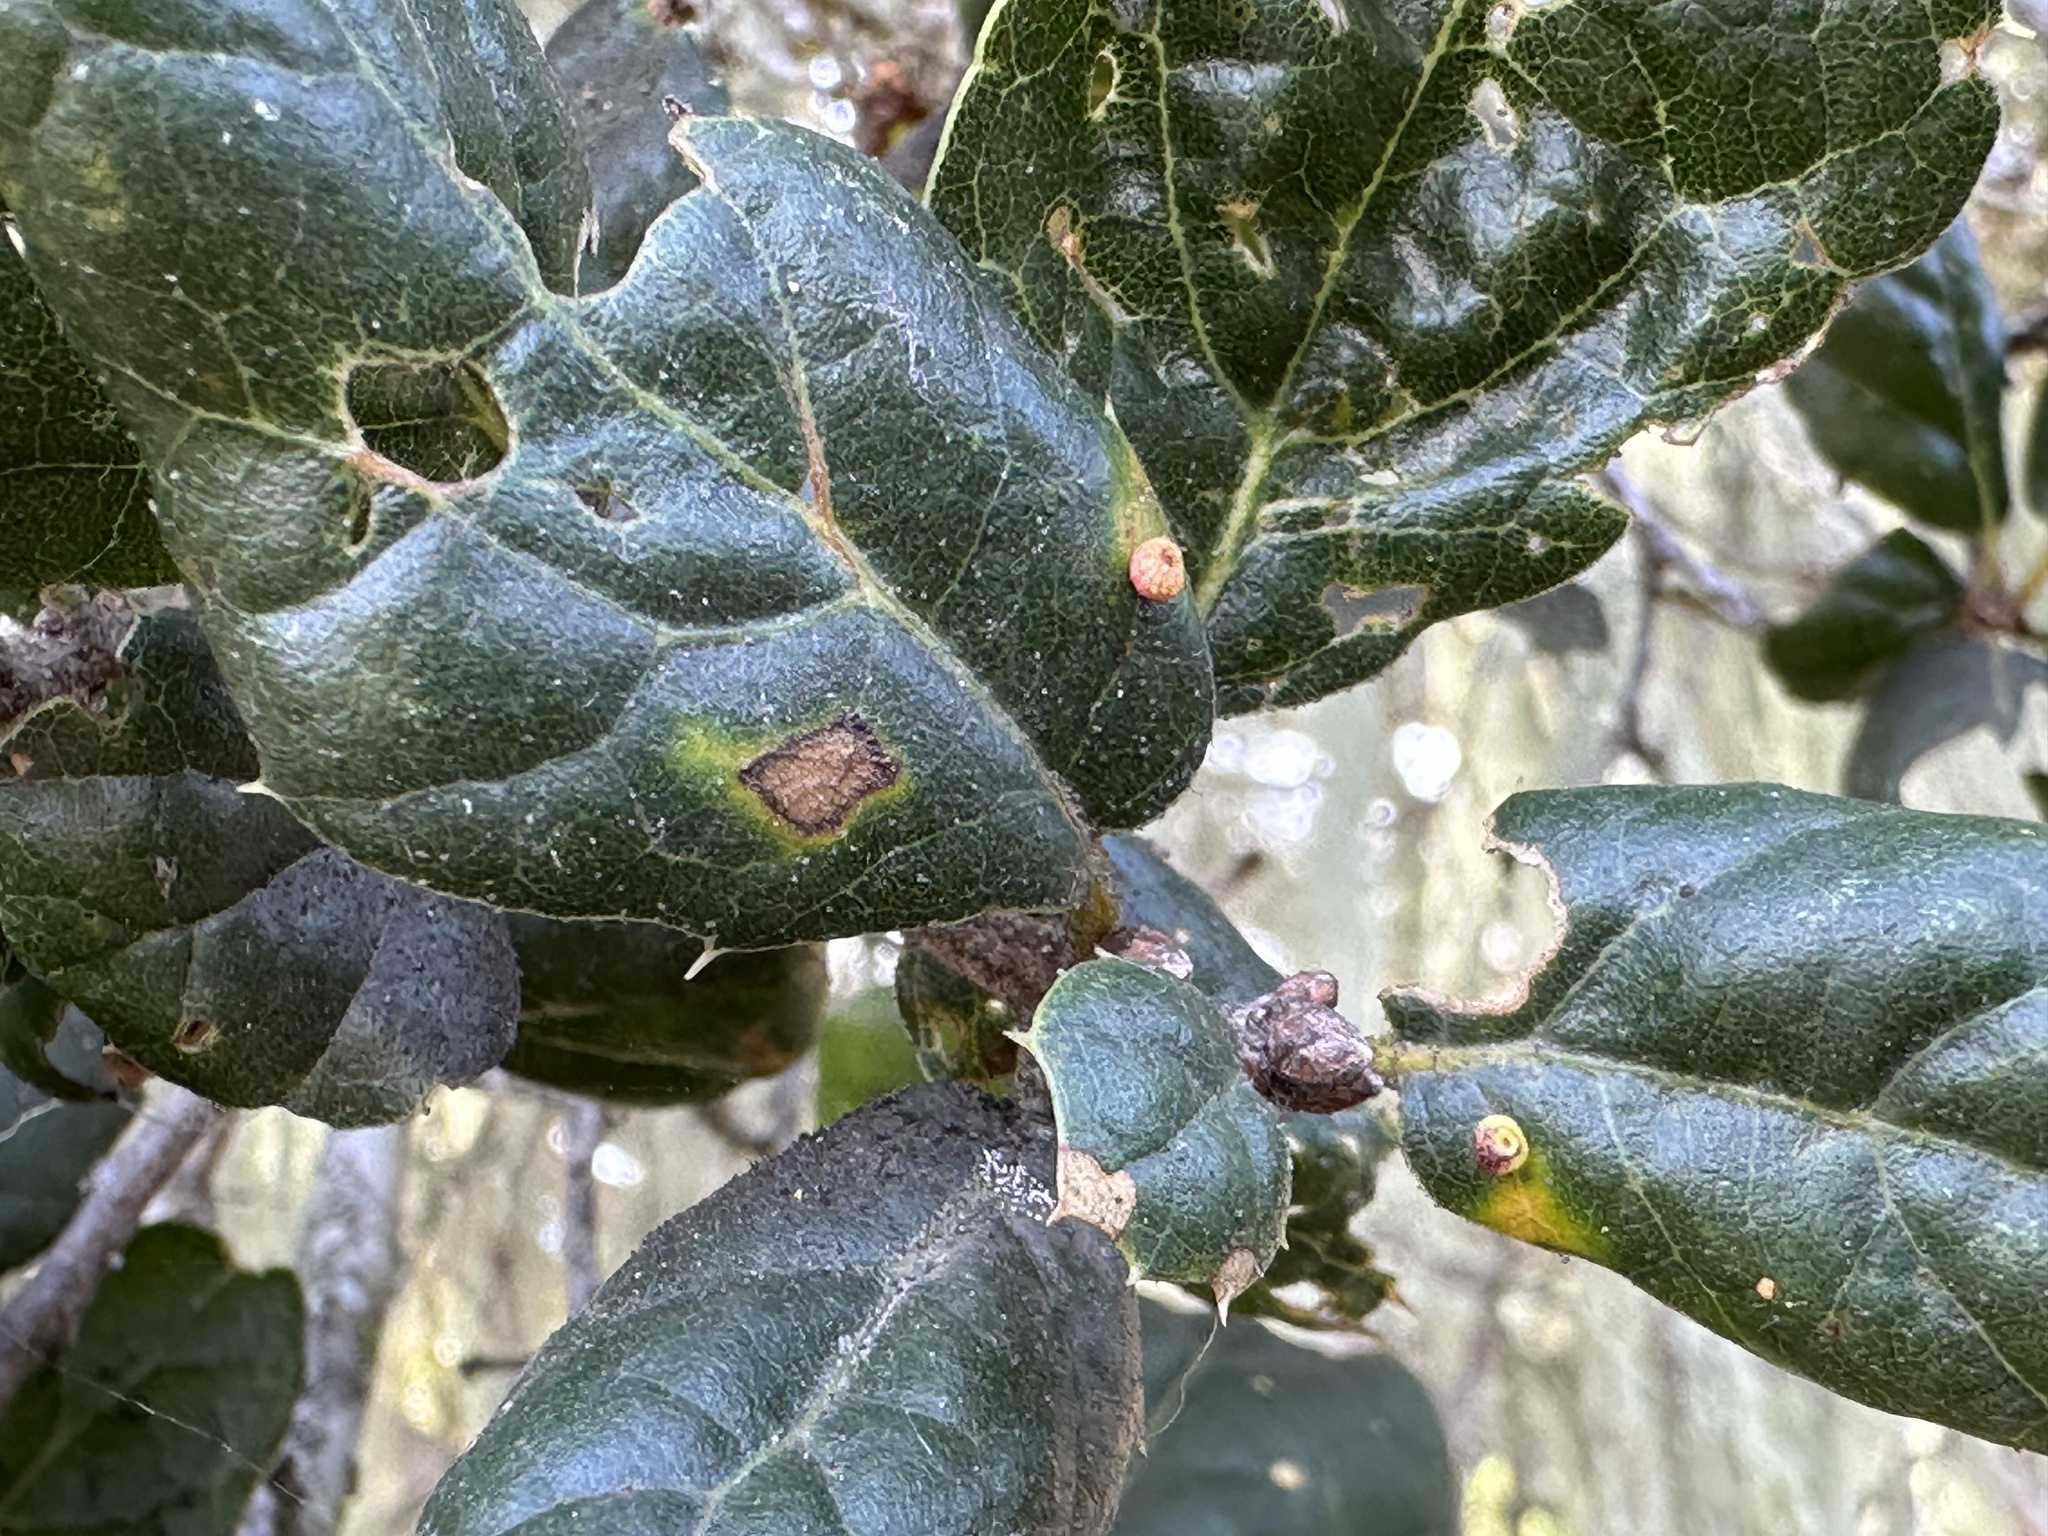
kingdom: Animalia
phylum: Arthropoda
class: Insecta
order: Hymenoptera
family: Cynipidae
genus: Dryocosmus
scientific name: Dryocosmus
